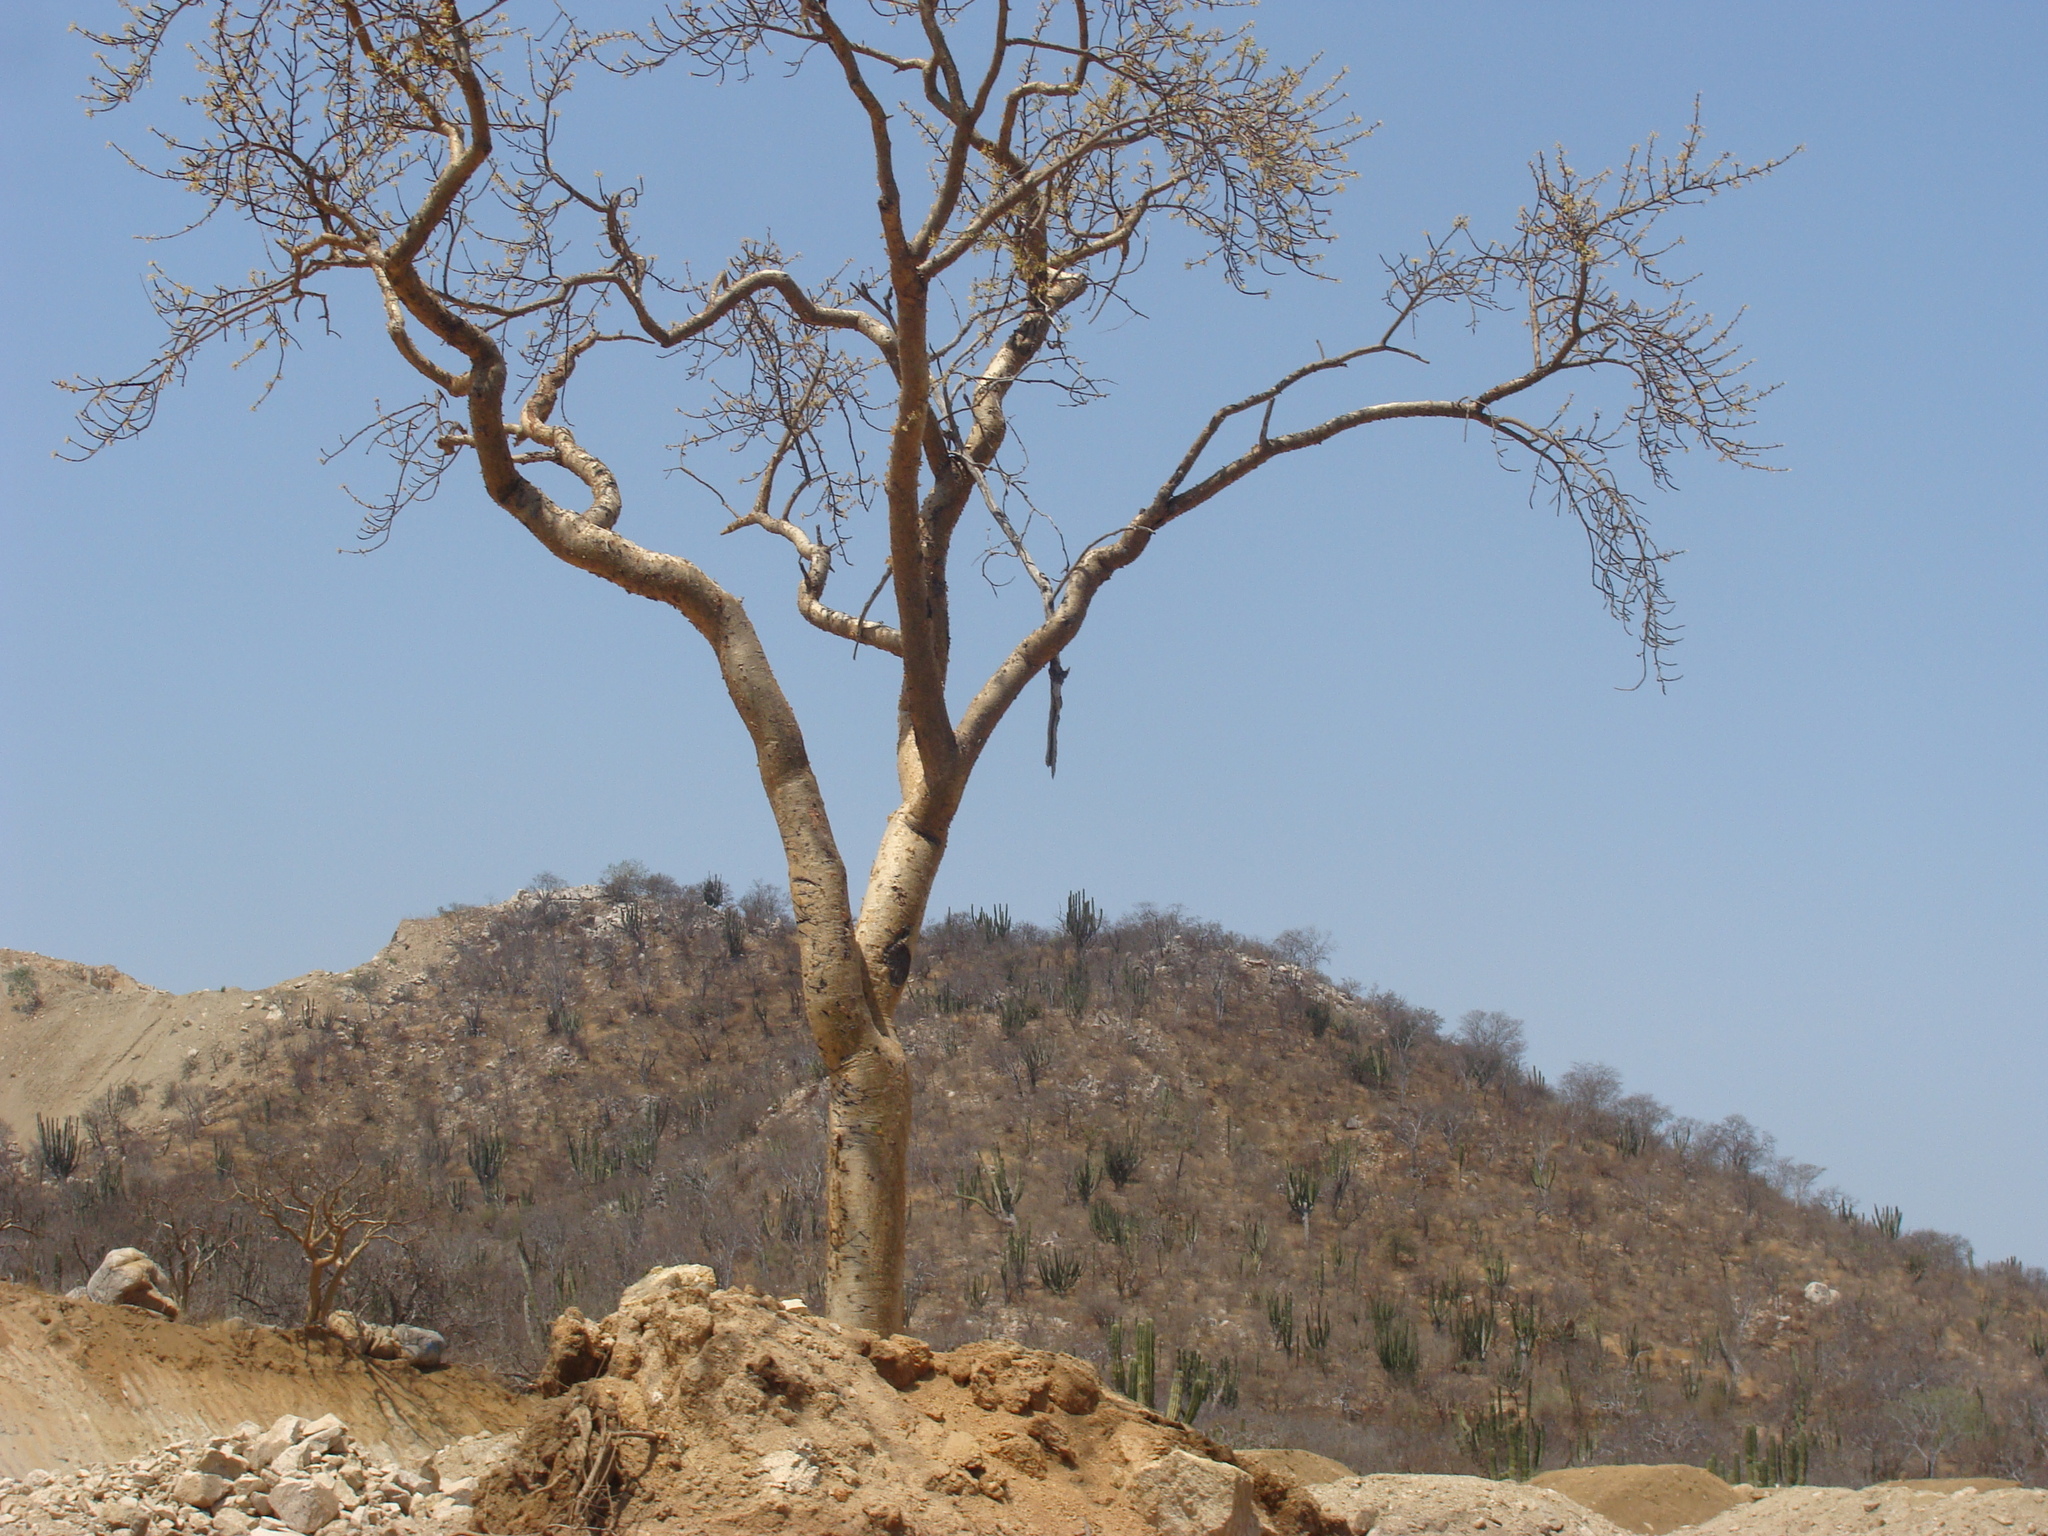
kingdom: Plantae
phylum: Tracheophyta
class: Magnoliopsida
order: Sapindales
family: Burseraceae
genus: Bursera
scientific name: Bursera microphylla
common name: Elephant tree
